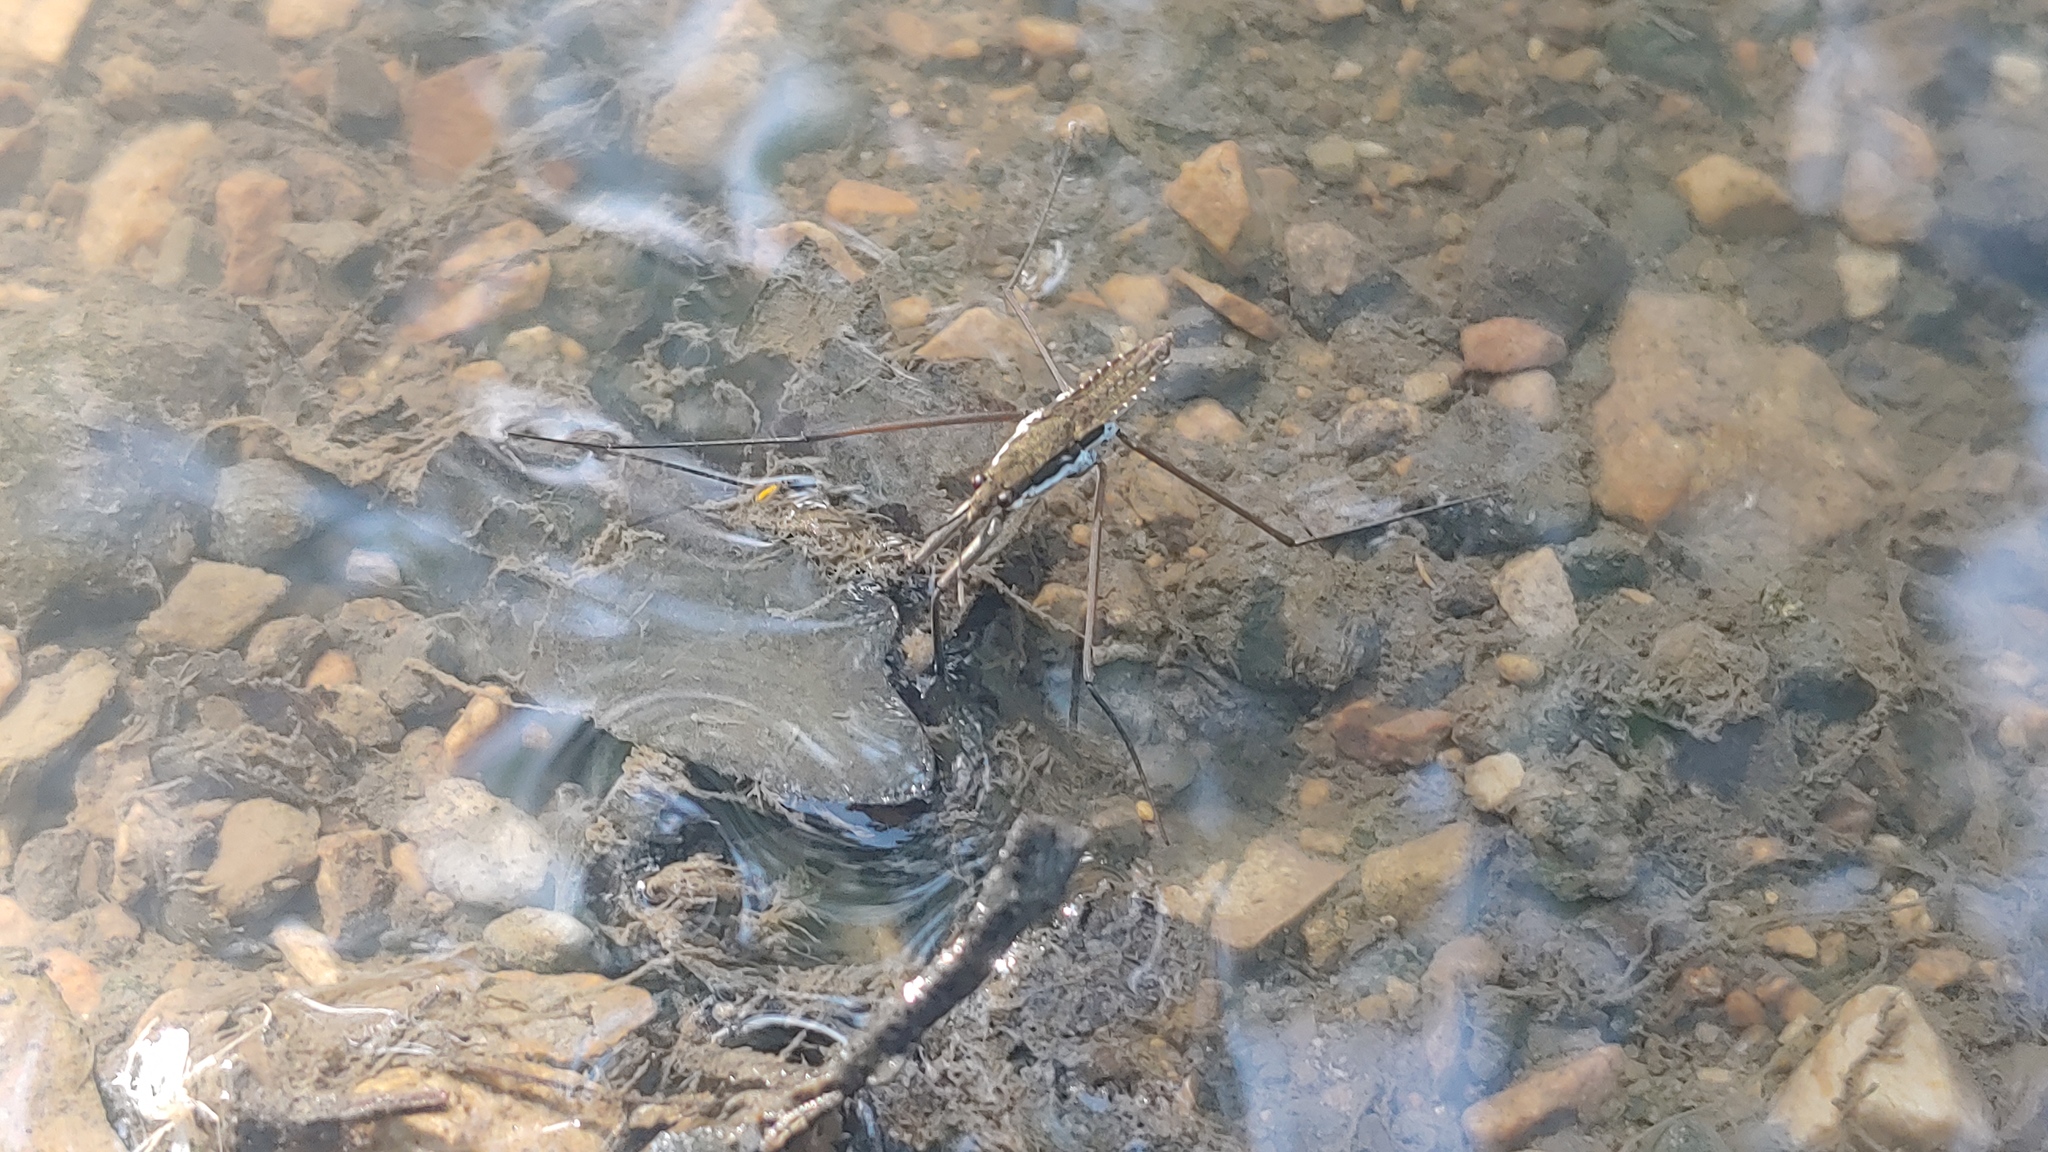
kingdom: Animalia
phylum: Arthropoda
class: Insecta
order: Hemiptera
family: Gerridae
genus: Aquarius
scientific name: Aquarius remigis
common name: Common water strider
